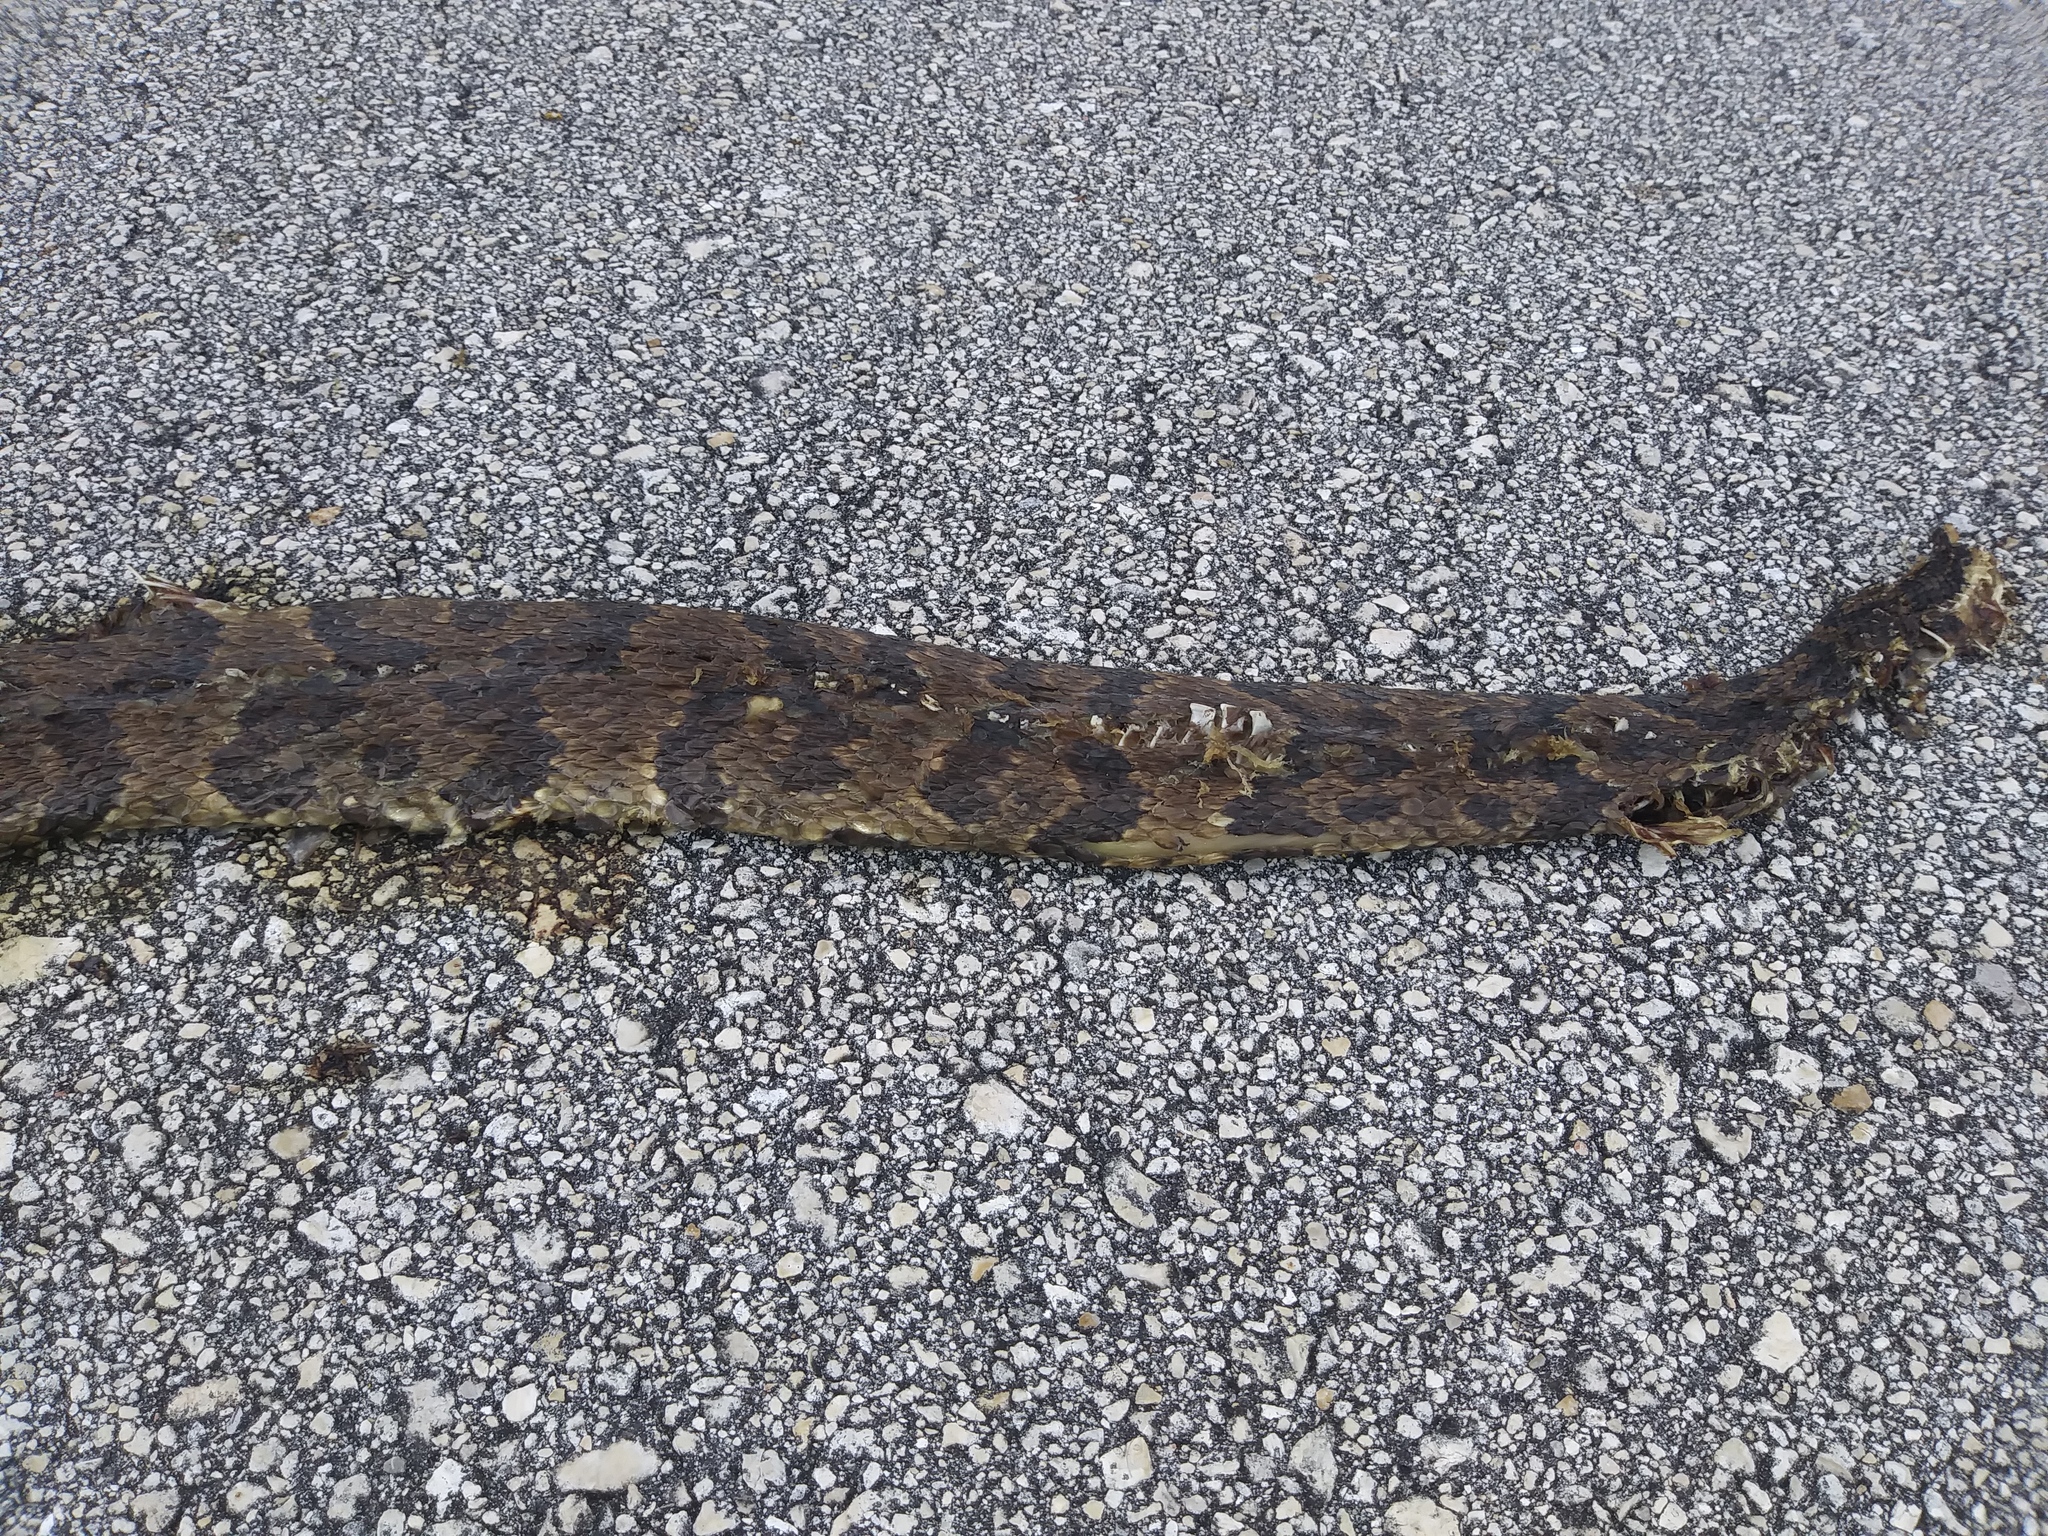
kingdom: Animalia
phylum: Chordata
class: Squamata
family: Viperidae
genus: Agkistrodon
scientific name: Agkistrodon conanti
